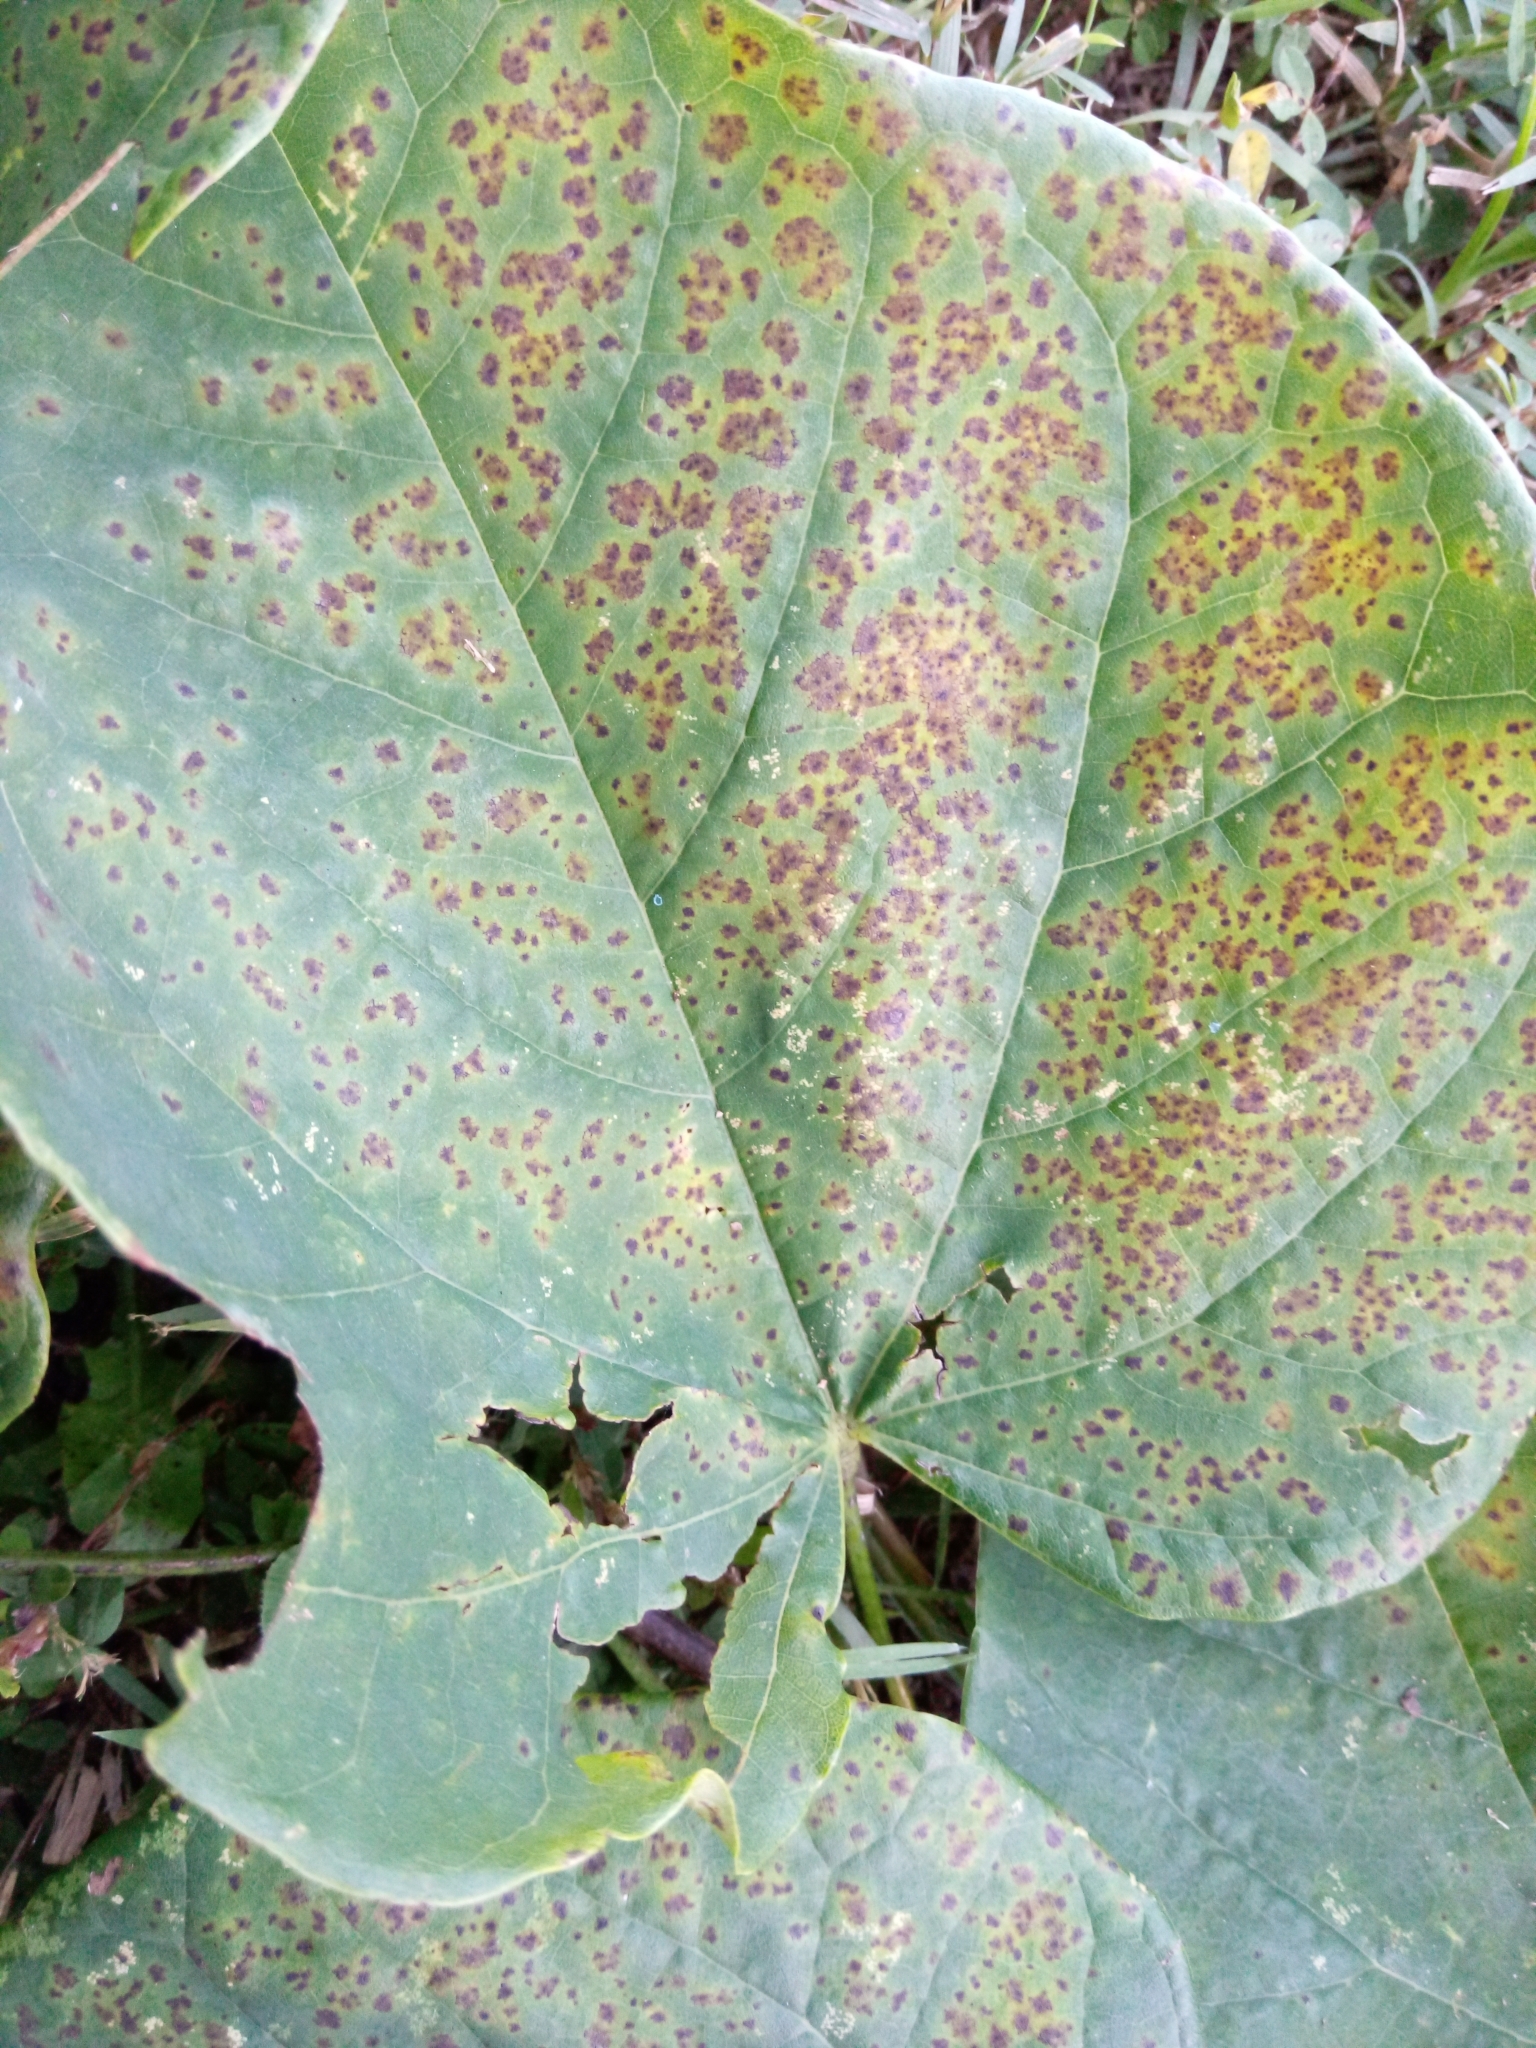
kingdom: Fungi
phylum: Ascomycota
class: Dothideomycetes
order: Mycosphaerellales
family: Mycosphaerellaceae
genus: Passalora
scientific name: Passalora chionea
